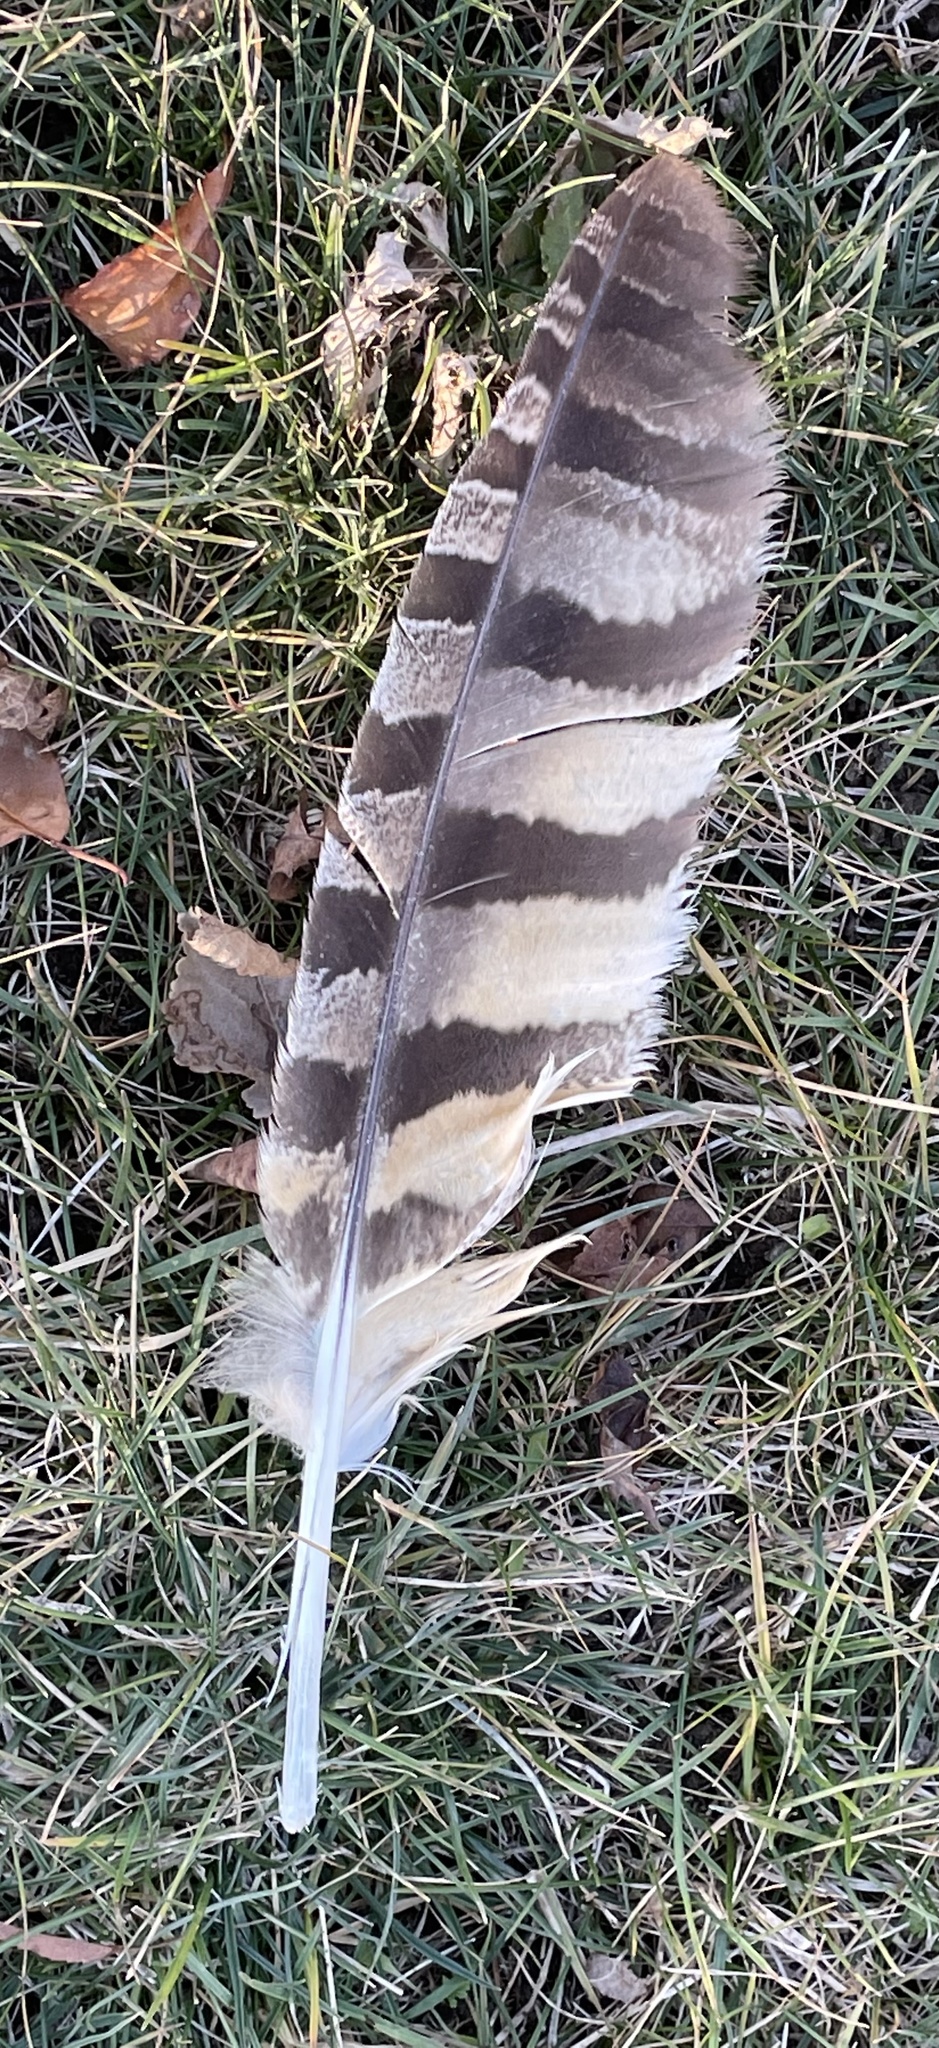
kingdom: Animalia
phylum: Chordata
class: Aves
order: Strigiformes
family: Strigidae
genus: Bubo
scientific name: Bubo virginianus
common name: Great horned owl
